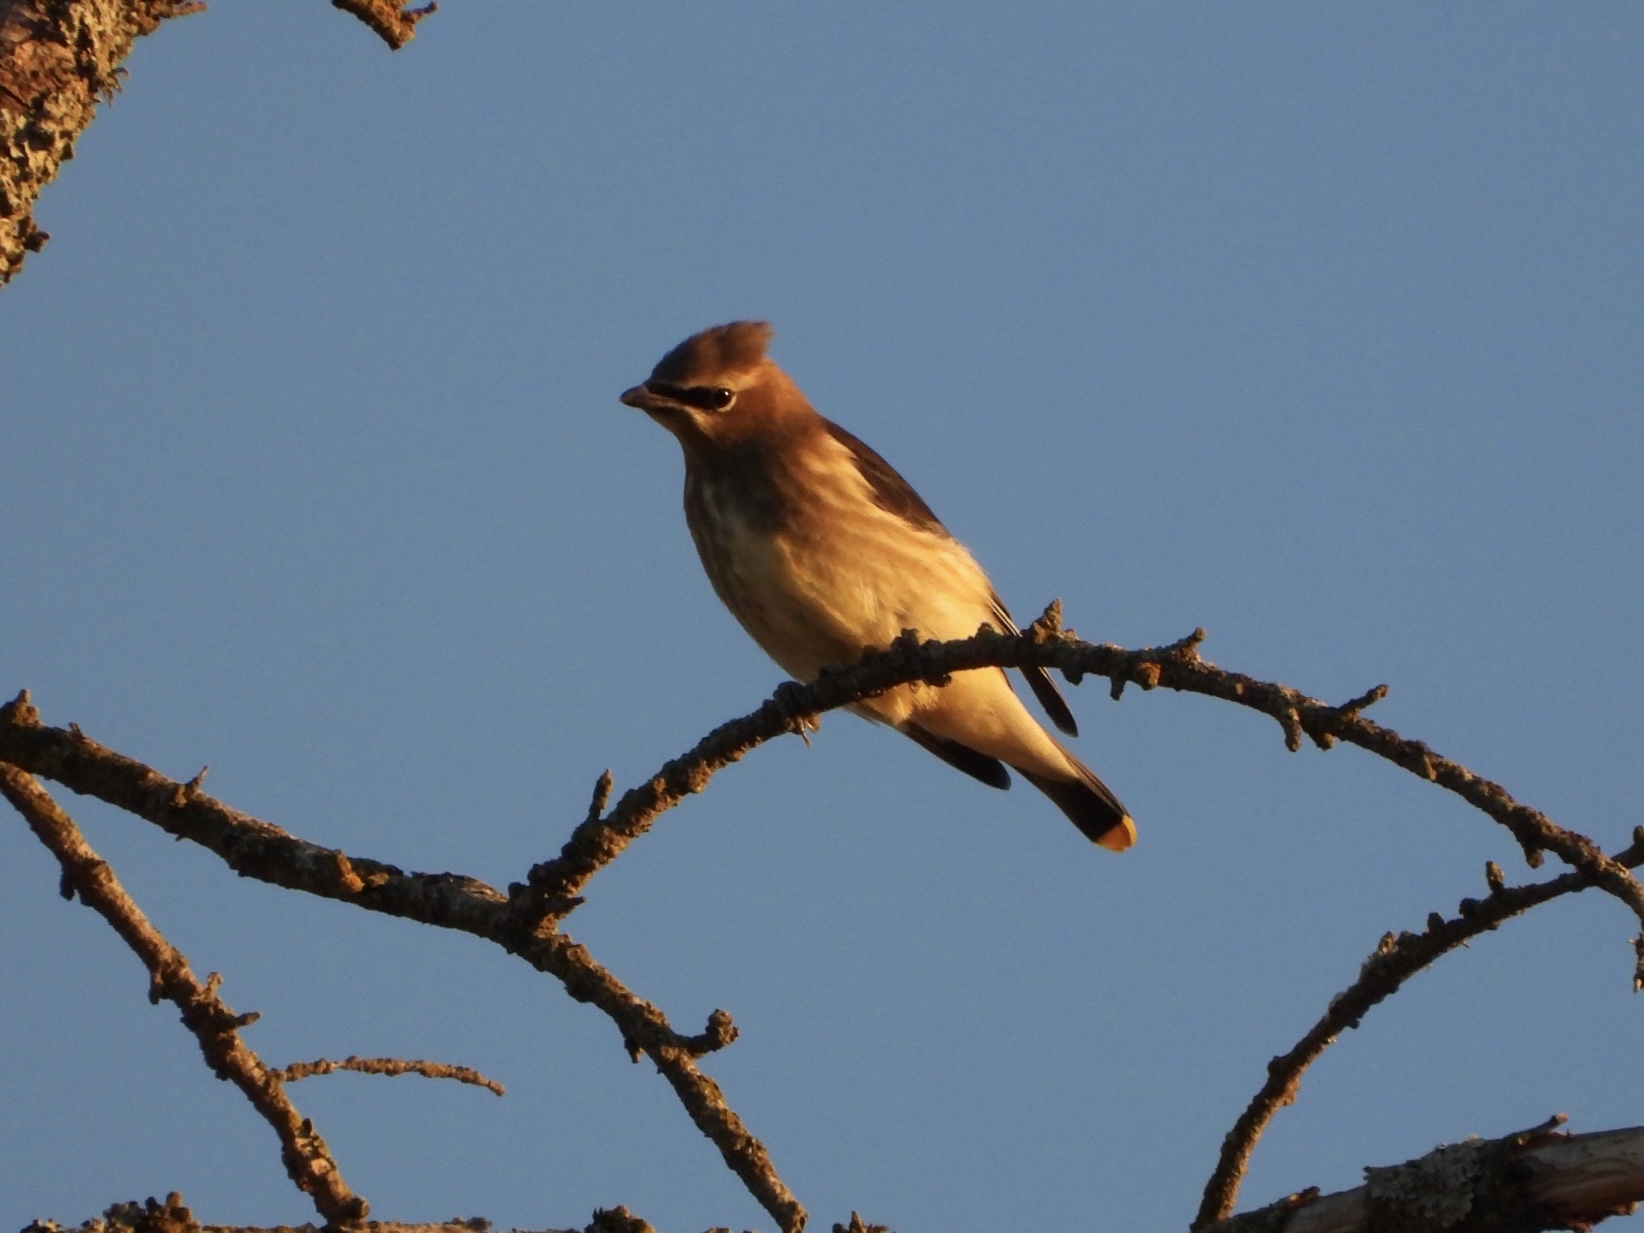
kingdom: Animalia
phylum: Chordata
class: Aves
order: Passeriformes
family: Bombycillidae
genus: Bombycilla
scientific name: Bombycilla cedrorum
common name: Cedar waxwing
